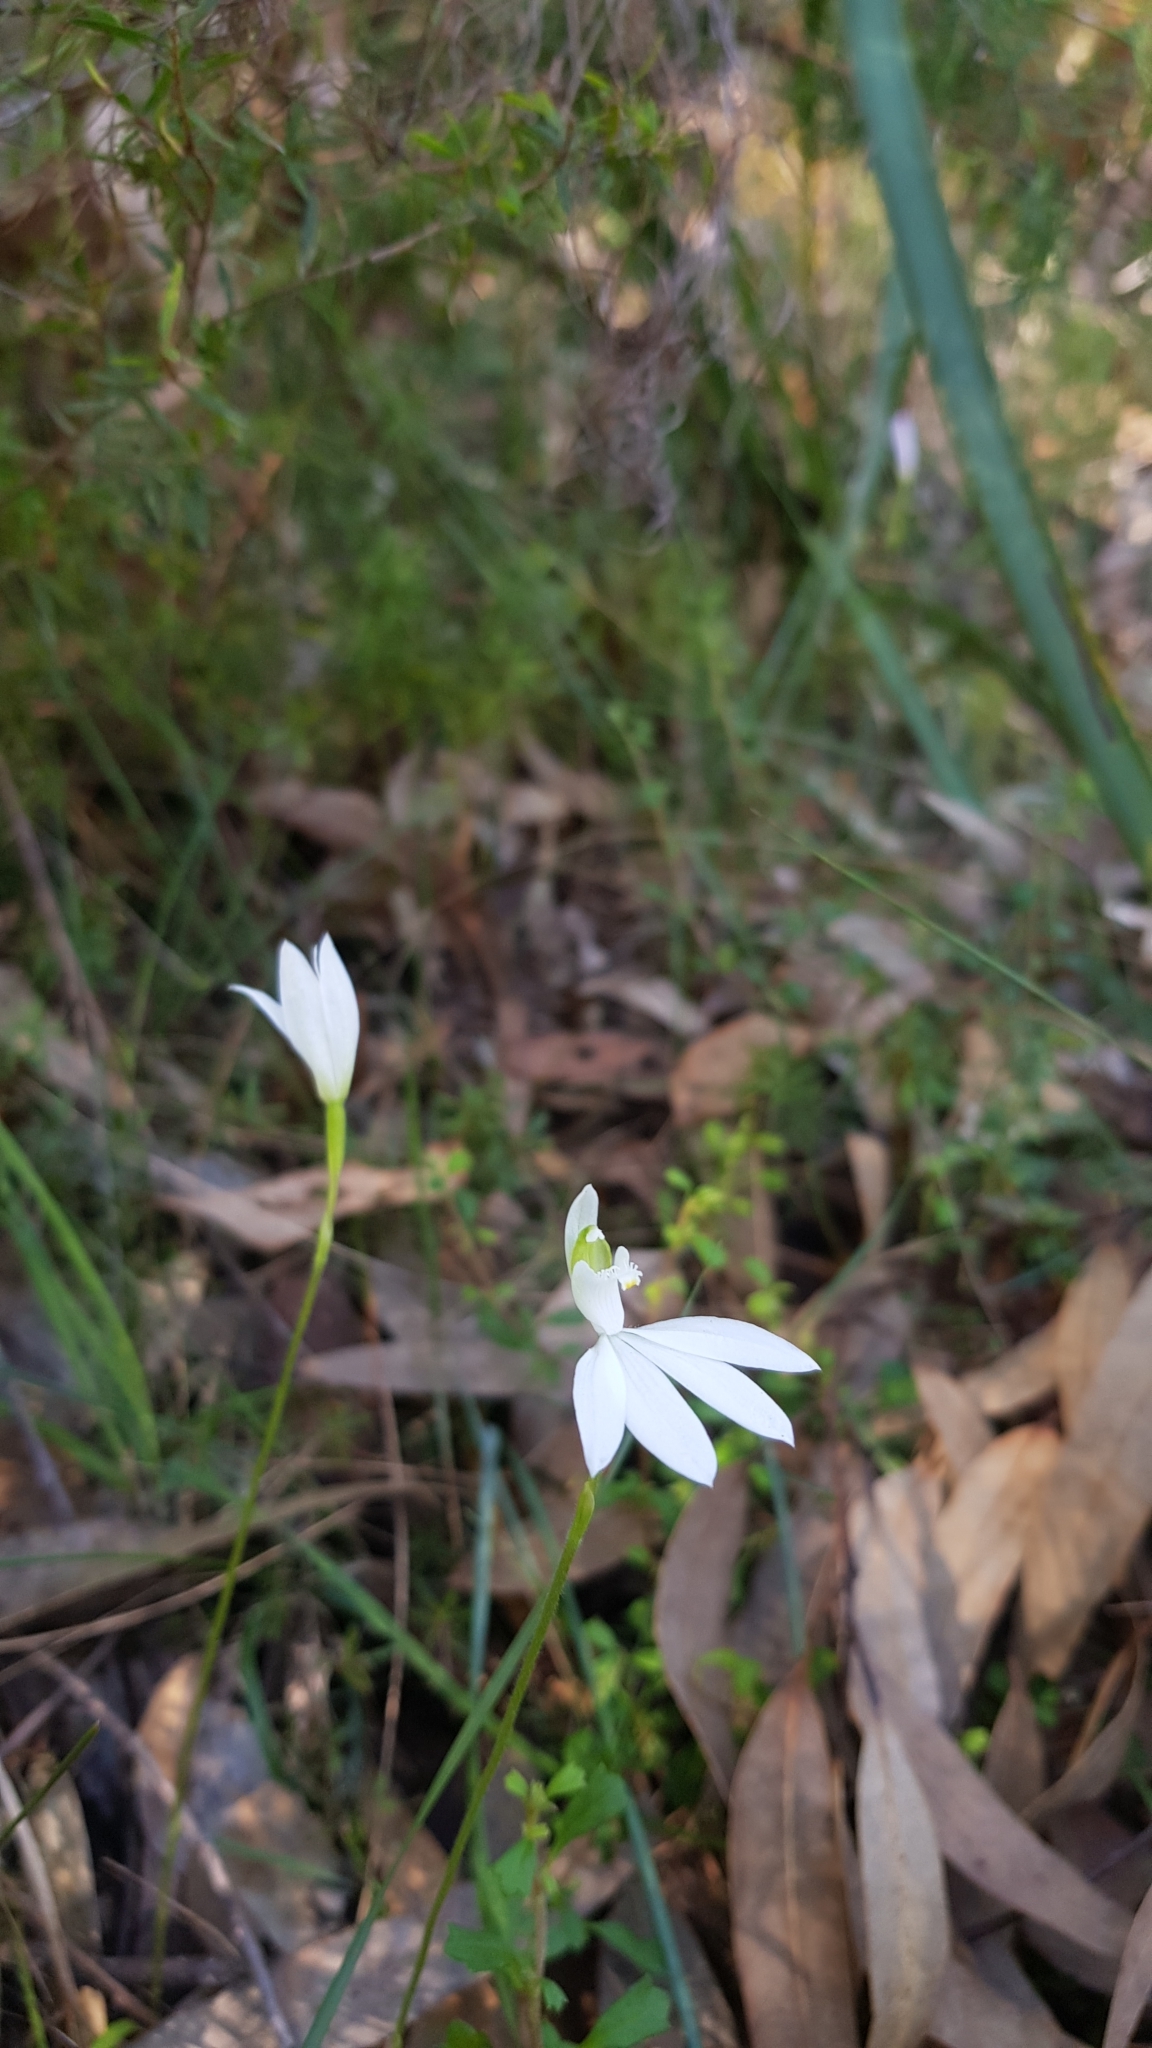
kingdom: Plantae
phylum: Tracheophyta
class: Liliopsida
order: Asparagales
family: Orchidaceae
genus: Caladenia
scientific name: Caladenia catenata
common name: White caladenia
